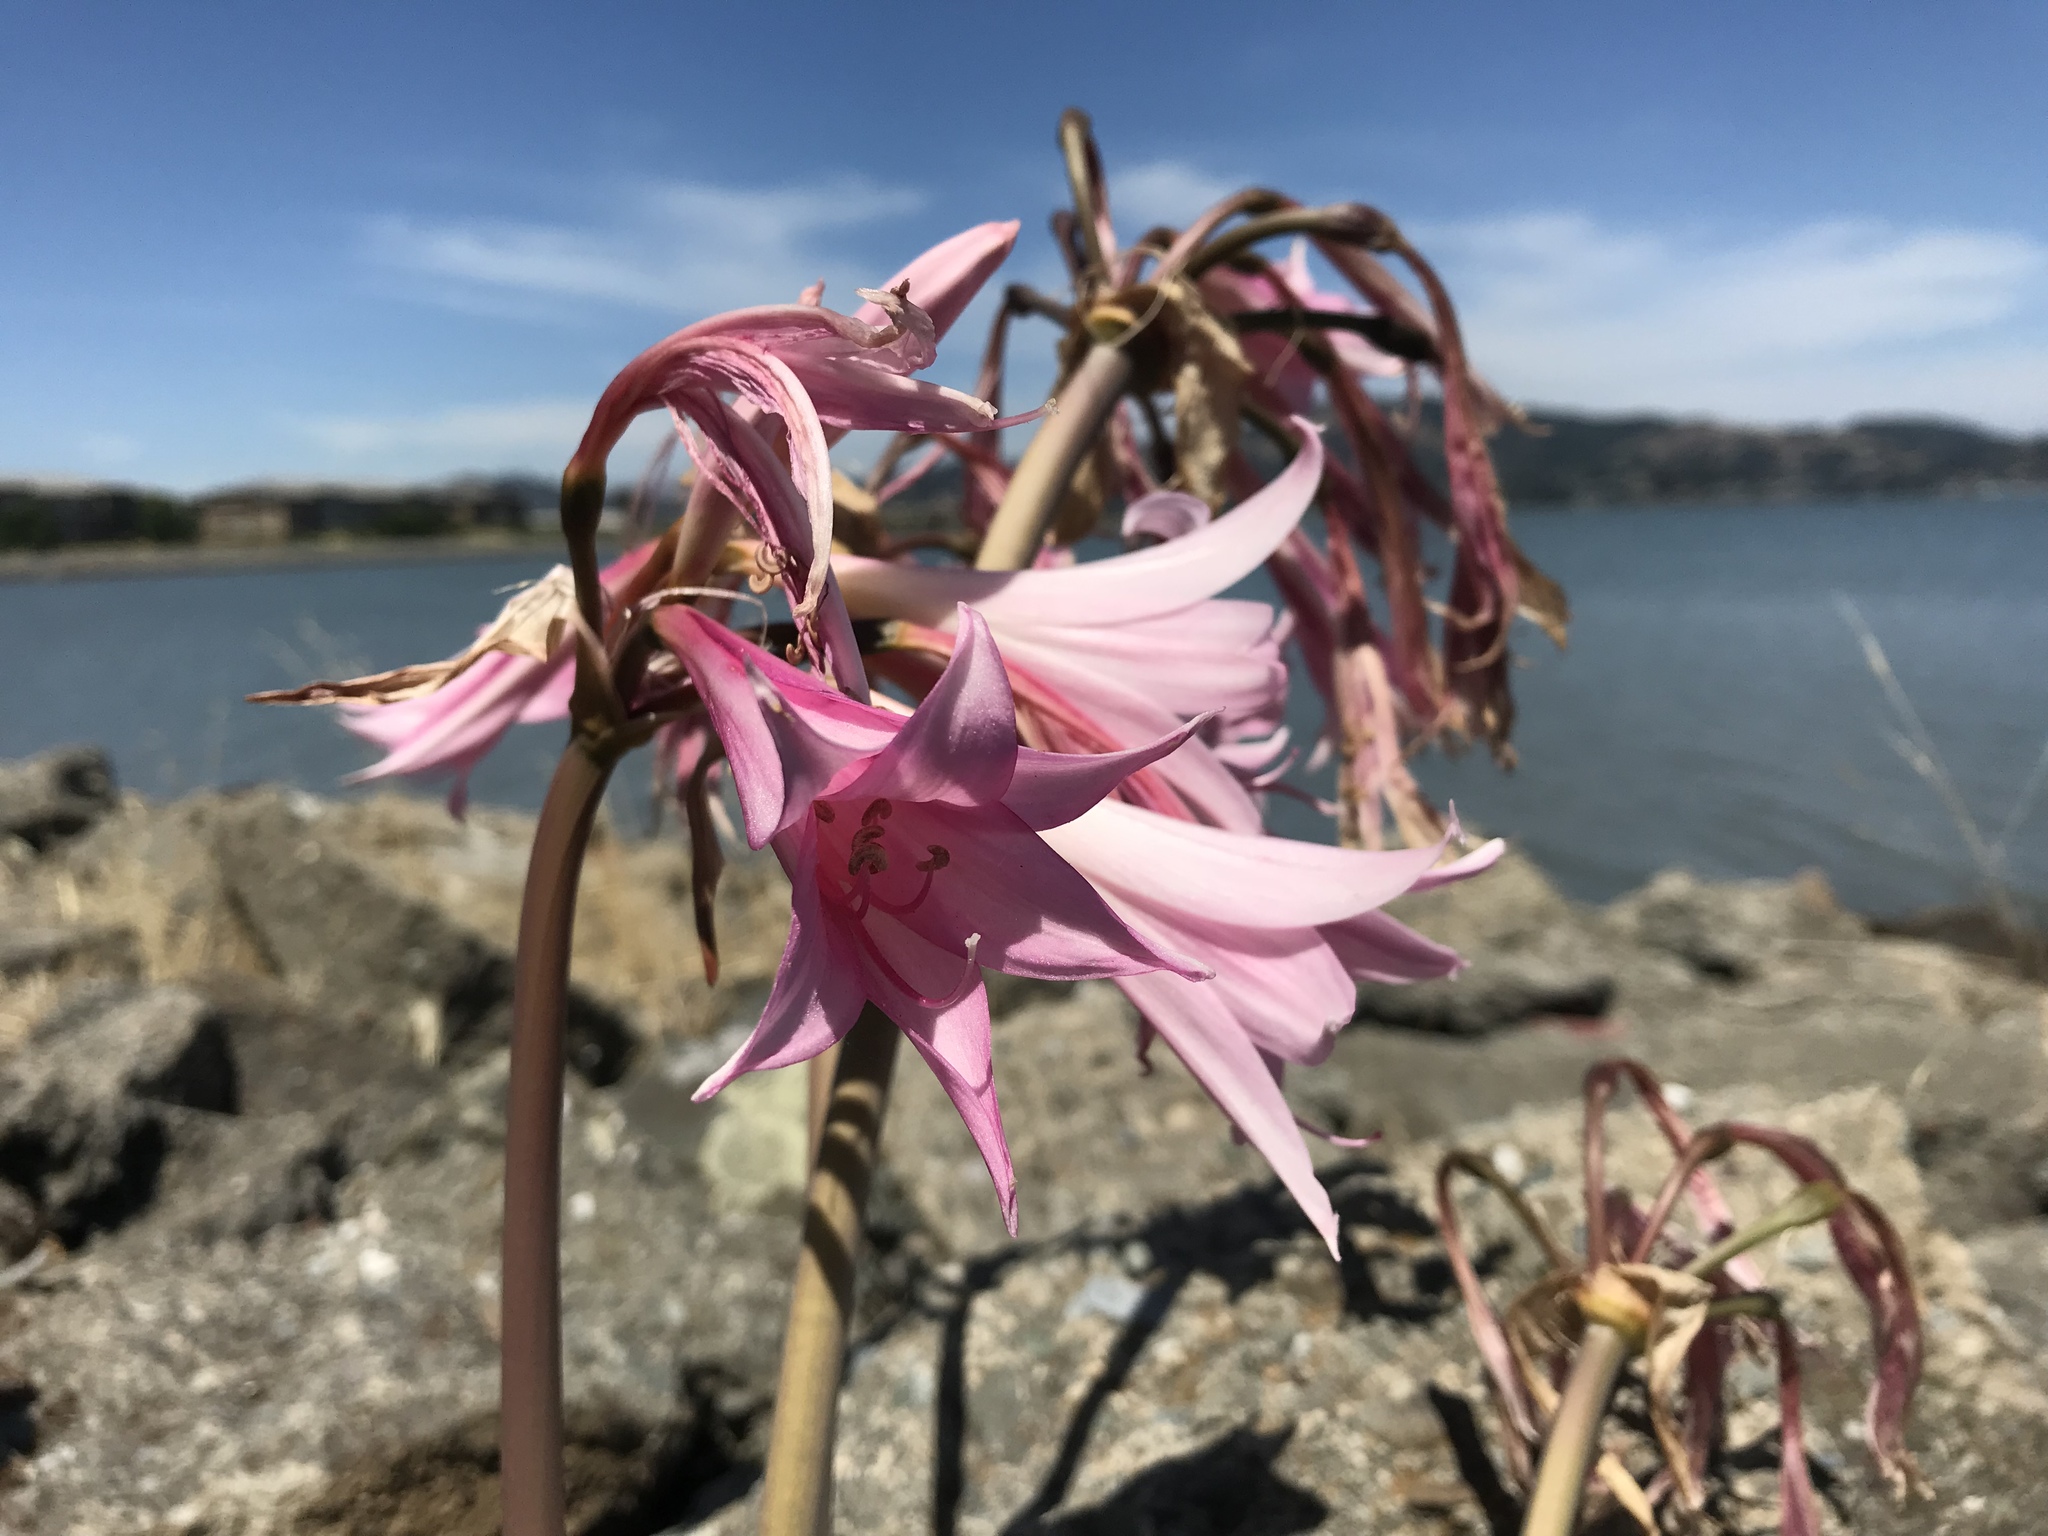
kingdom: Plantae
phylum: Tracheophyta
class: Liliopsida
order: Asparagales
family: Amaryllidaceae
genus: Amaryllis
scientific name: Amaryllis belladonna
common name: Jersey lily
